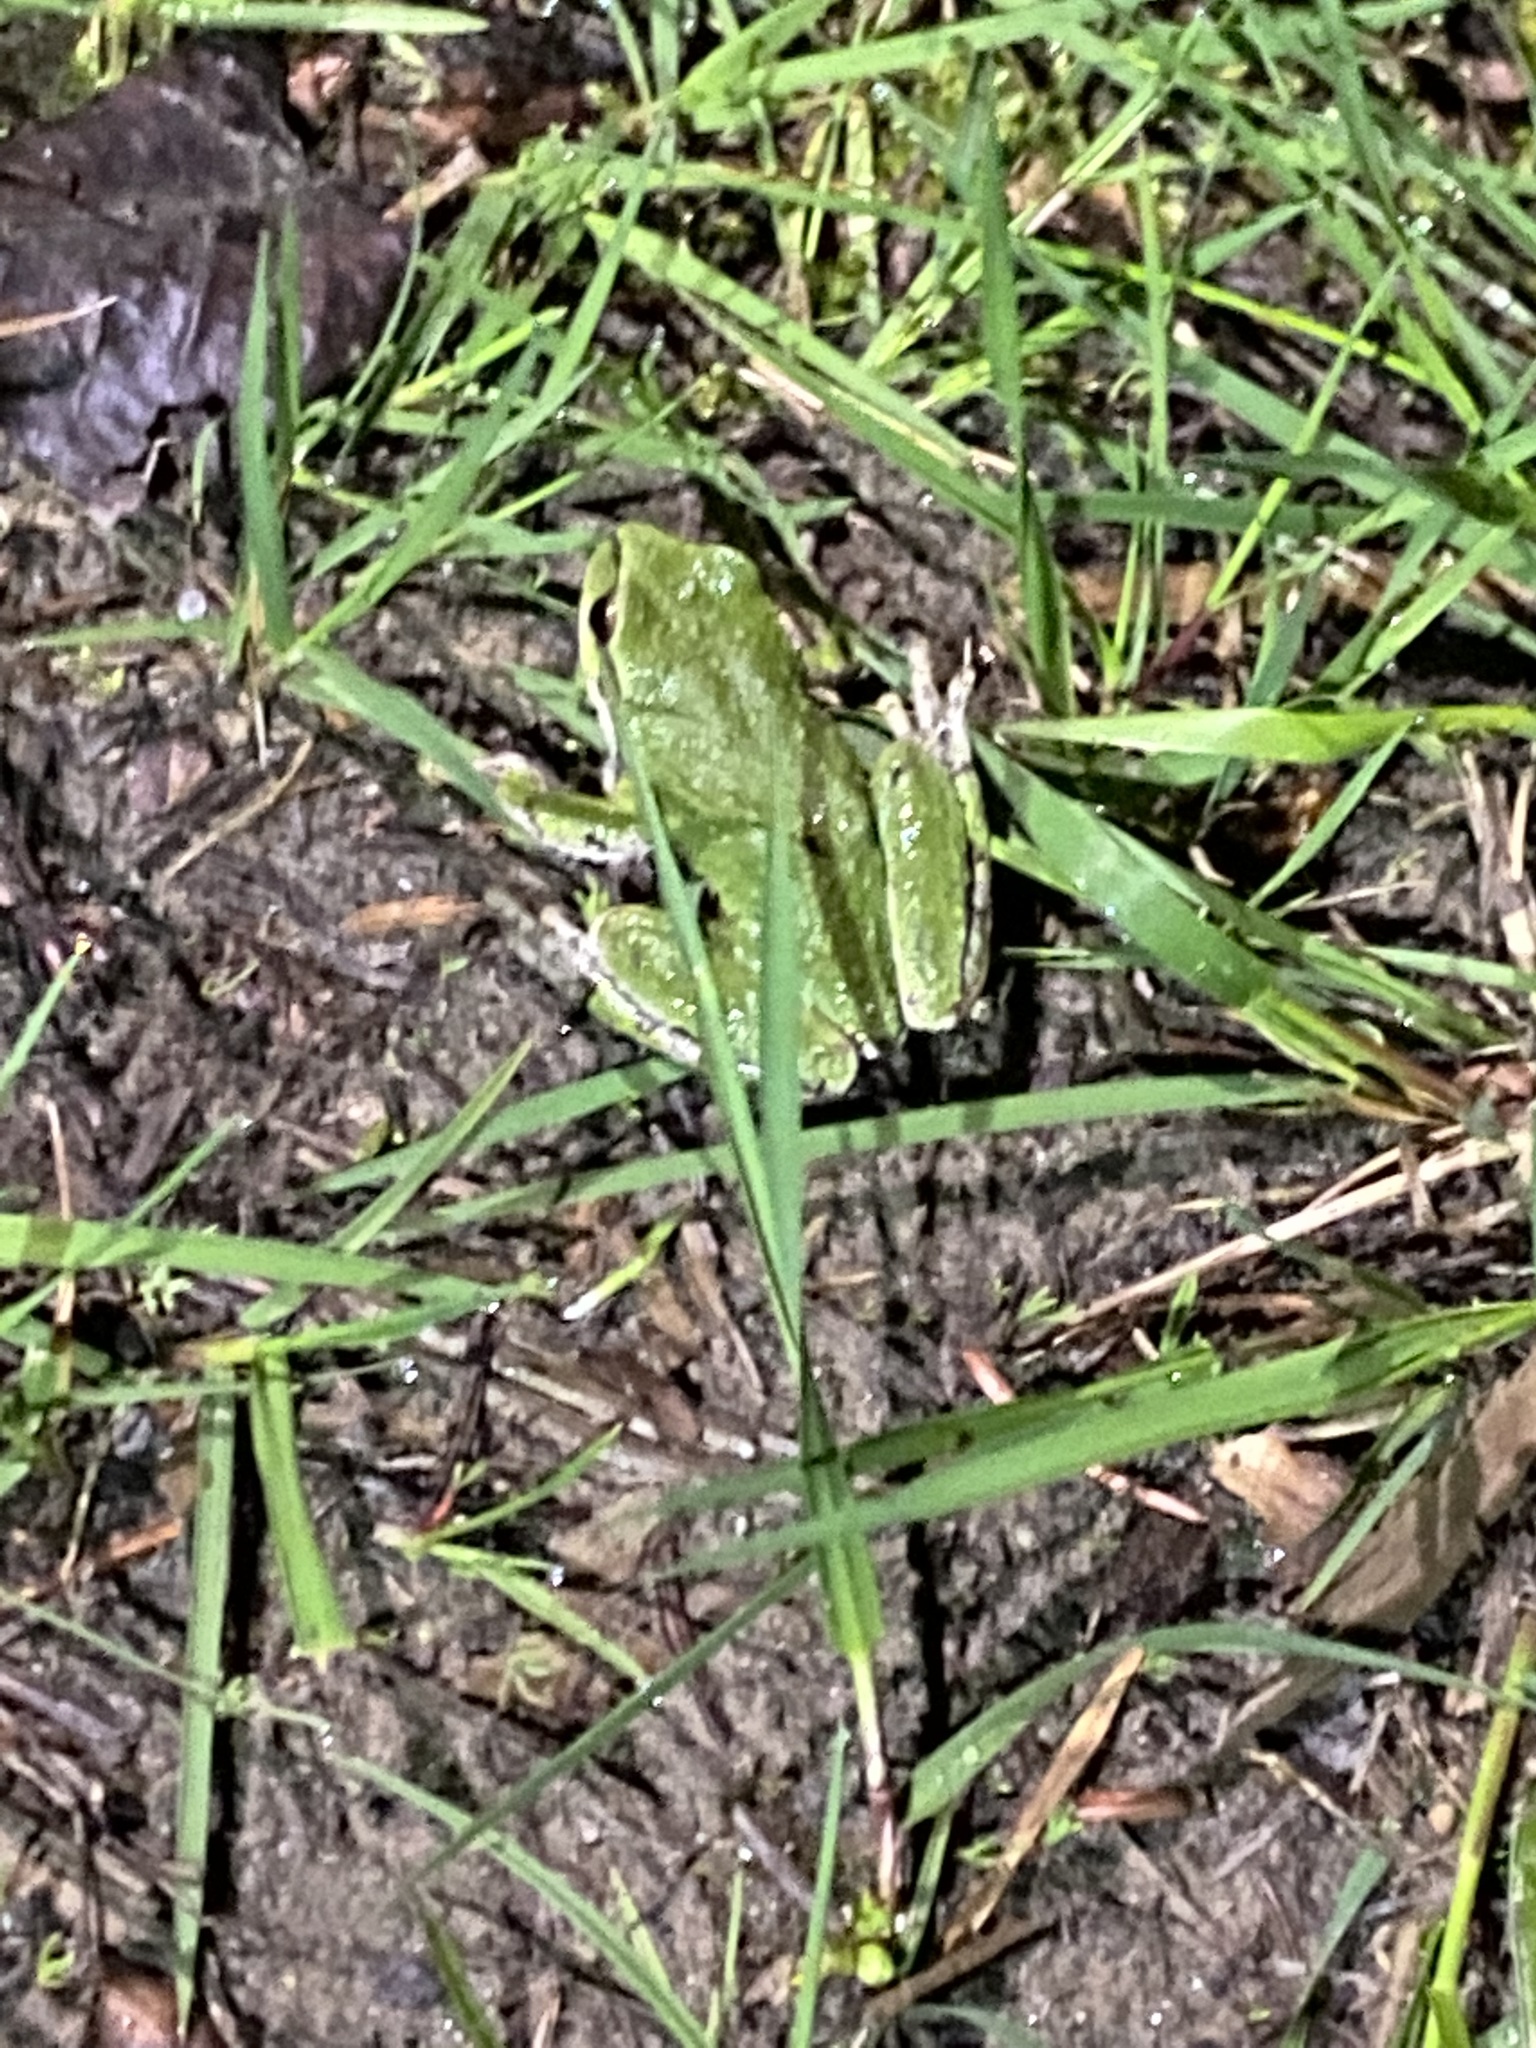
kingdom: Animalia
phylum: Chordata
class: Amphibia
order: Anura
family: Hylidae
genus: Pseudacris
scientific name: Pseudacris regilla
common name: Pacific chorus frog
